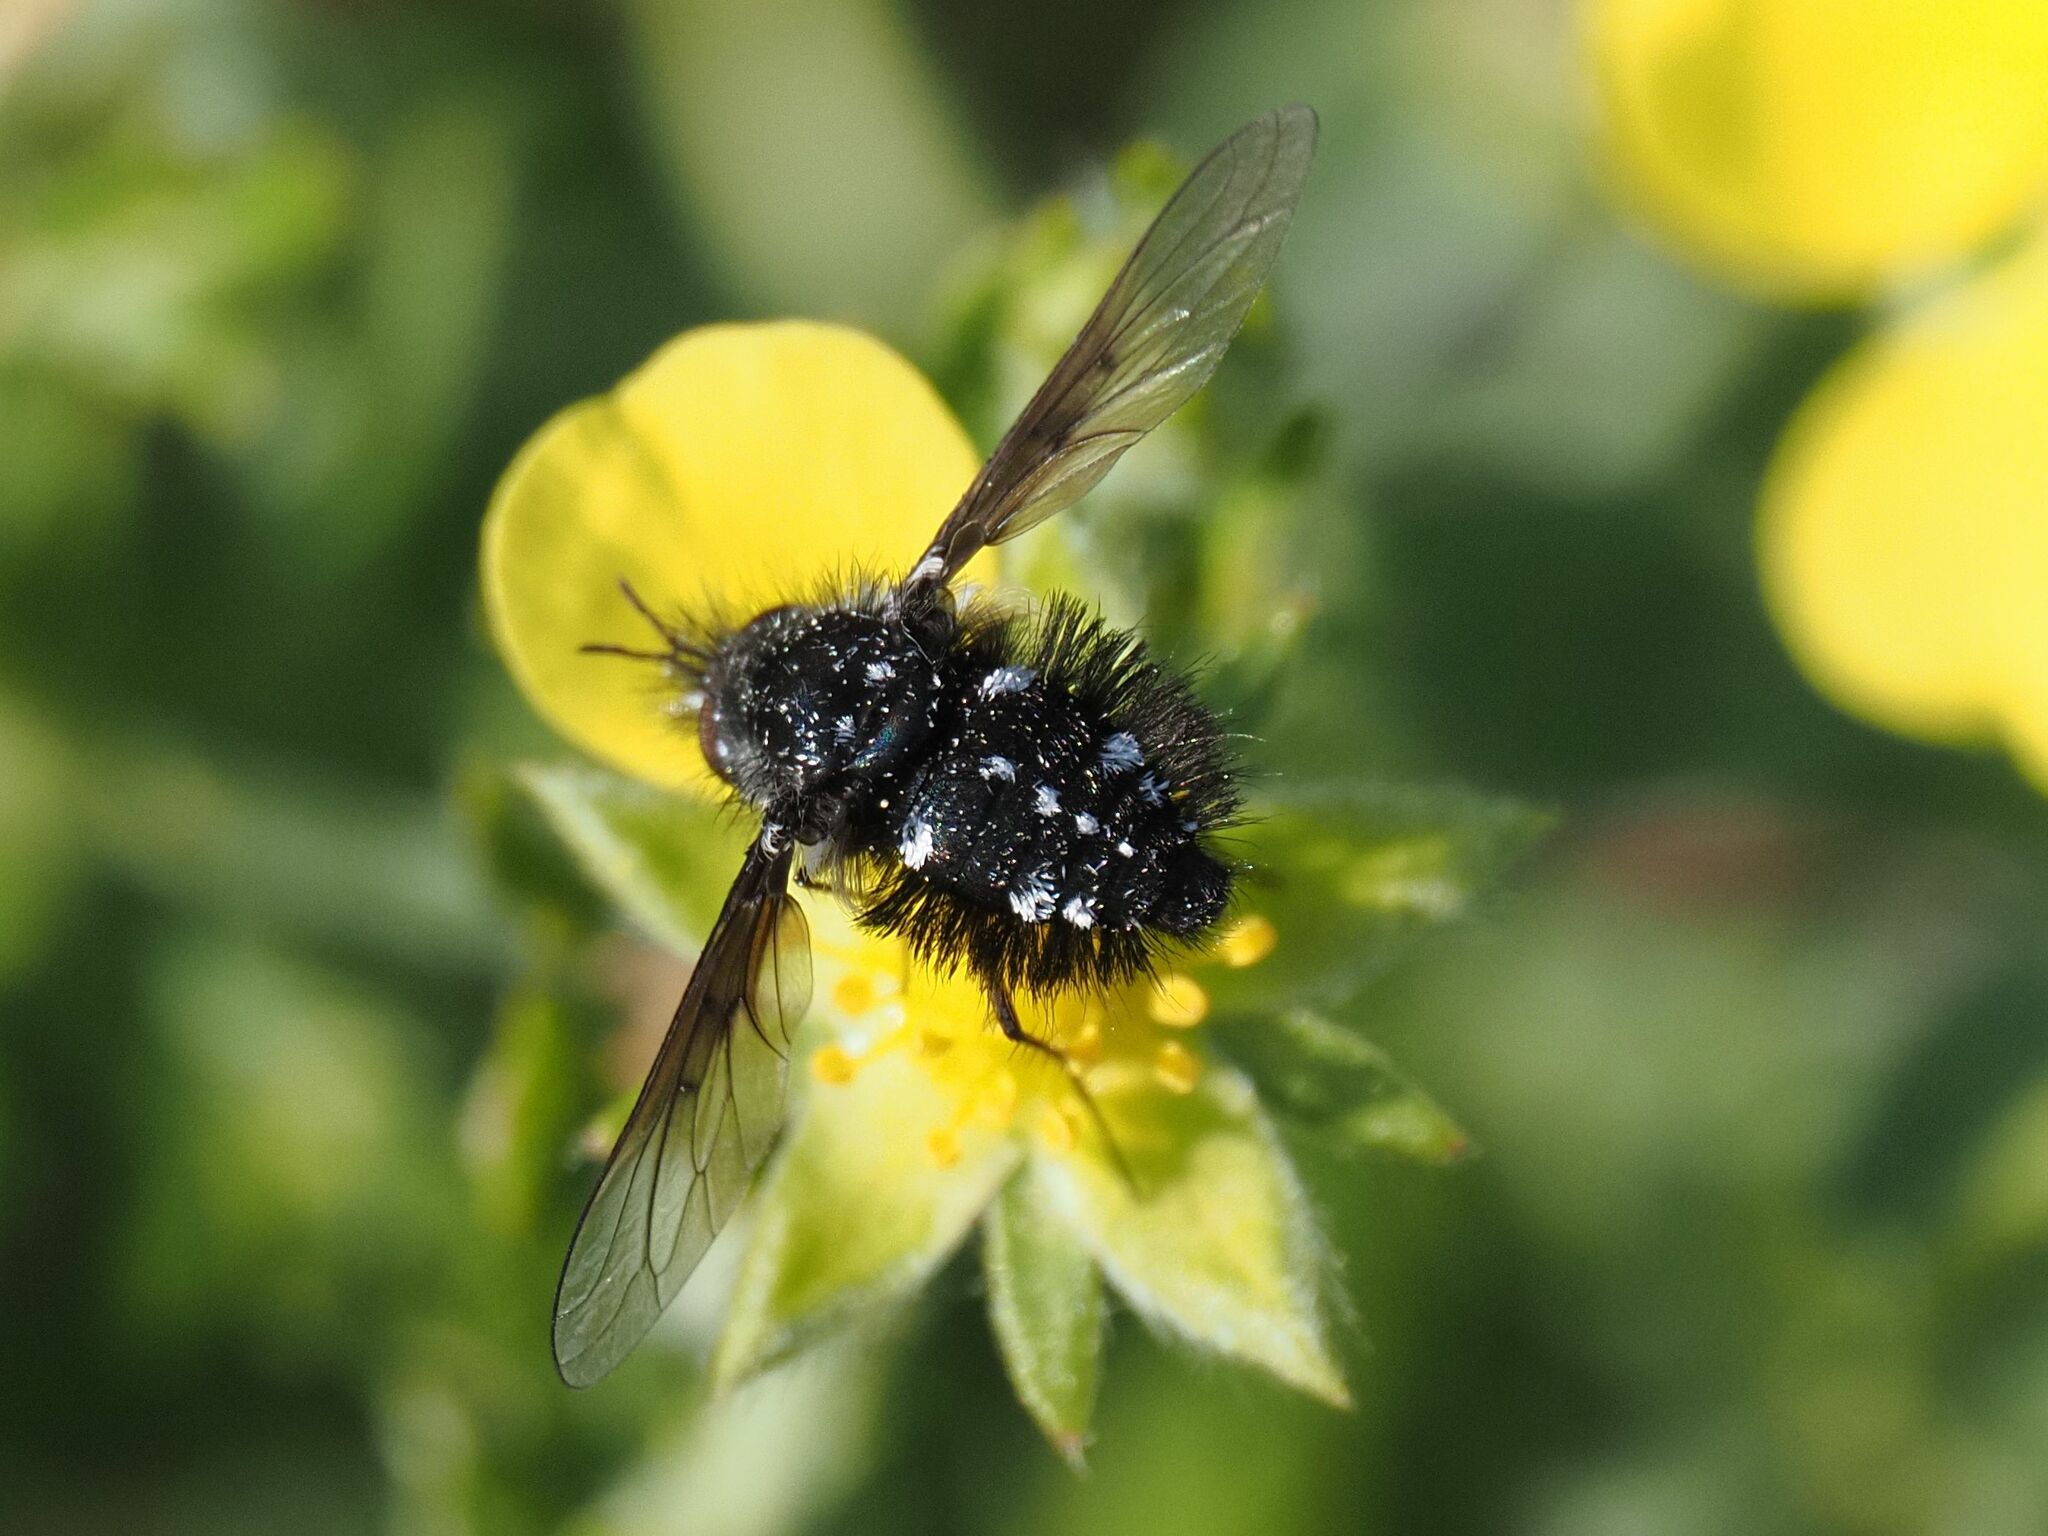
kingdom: Animalia
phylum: Arthropoda
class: Insecta
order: Diptera
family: Bombyliidae
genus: Bombylella
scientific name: Bombylella atra
